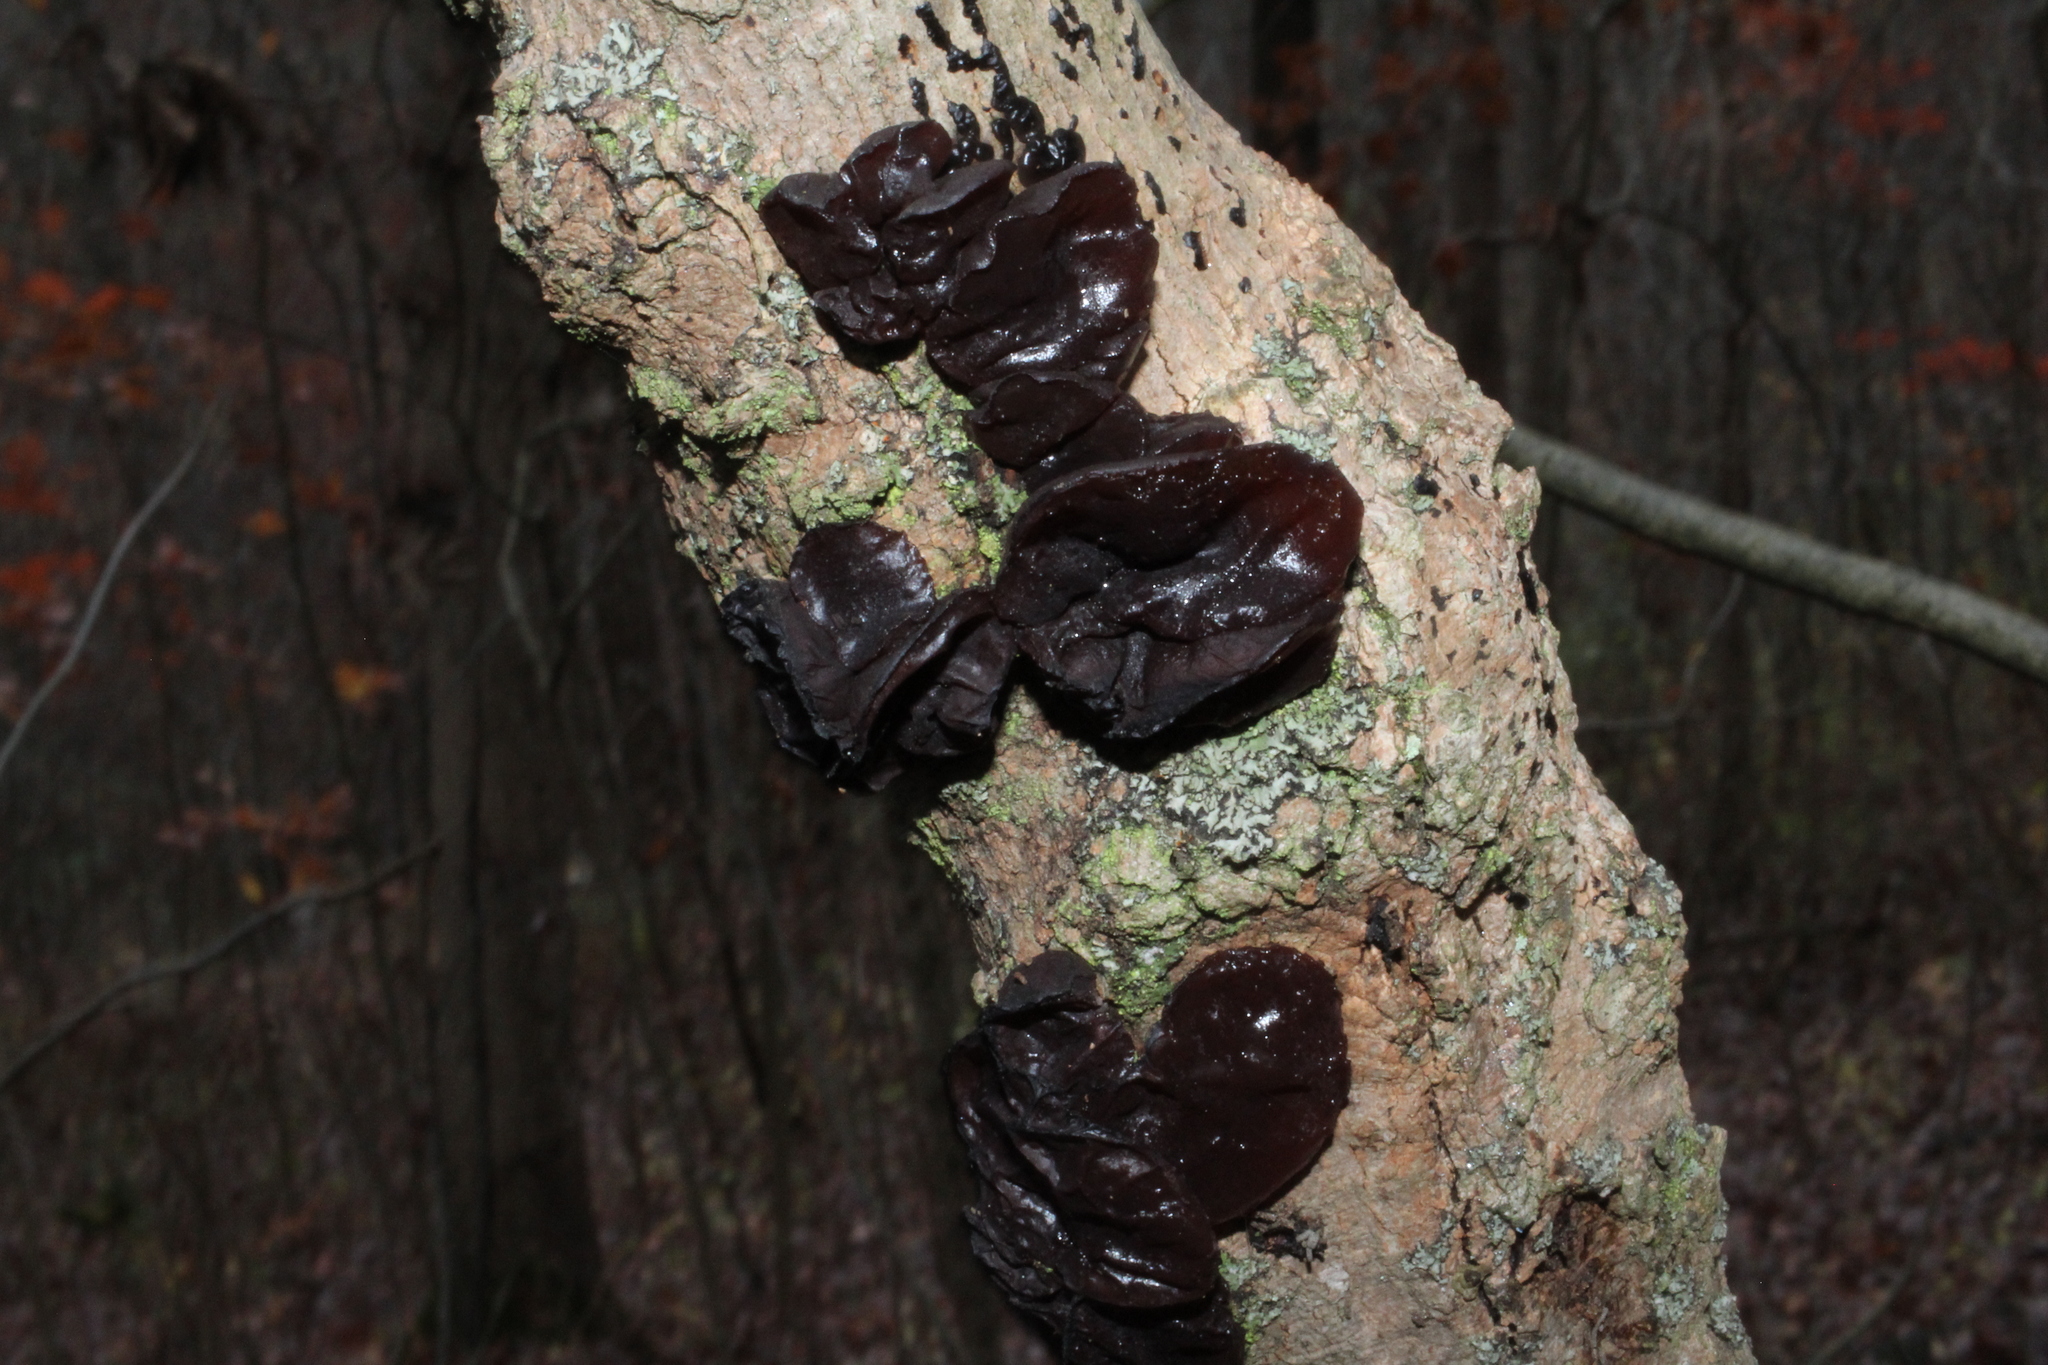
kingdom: Fungi
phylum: Basidiomycota
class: Agaricomycetes
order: Auriculariales
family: Auriculariaceae
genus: Exidia
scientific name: Exidia
